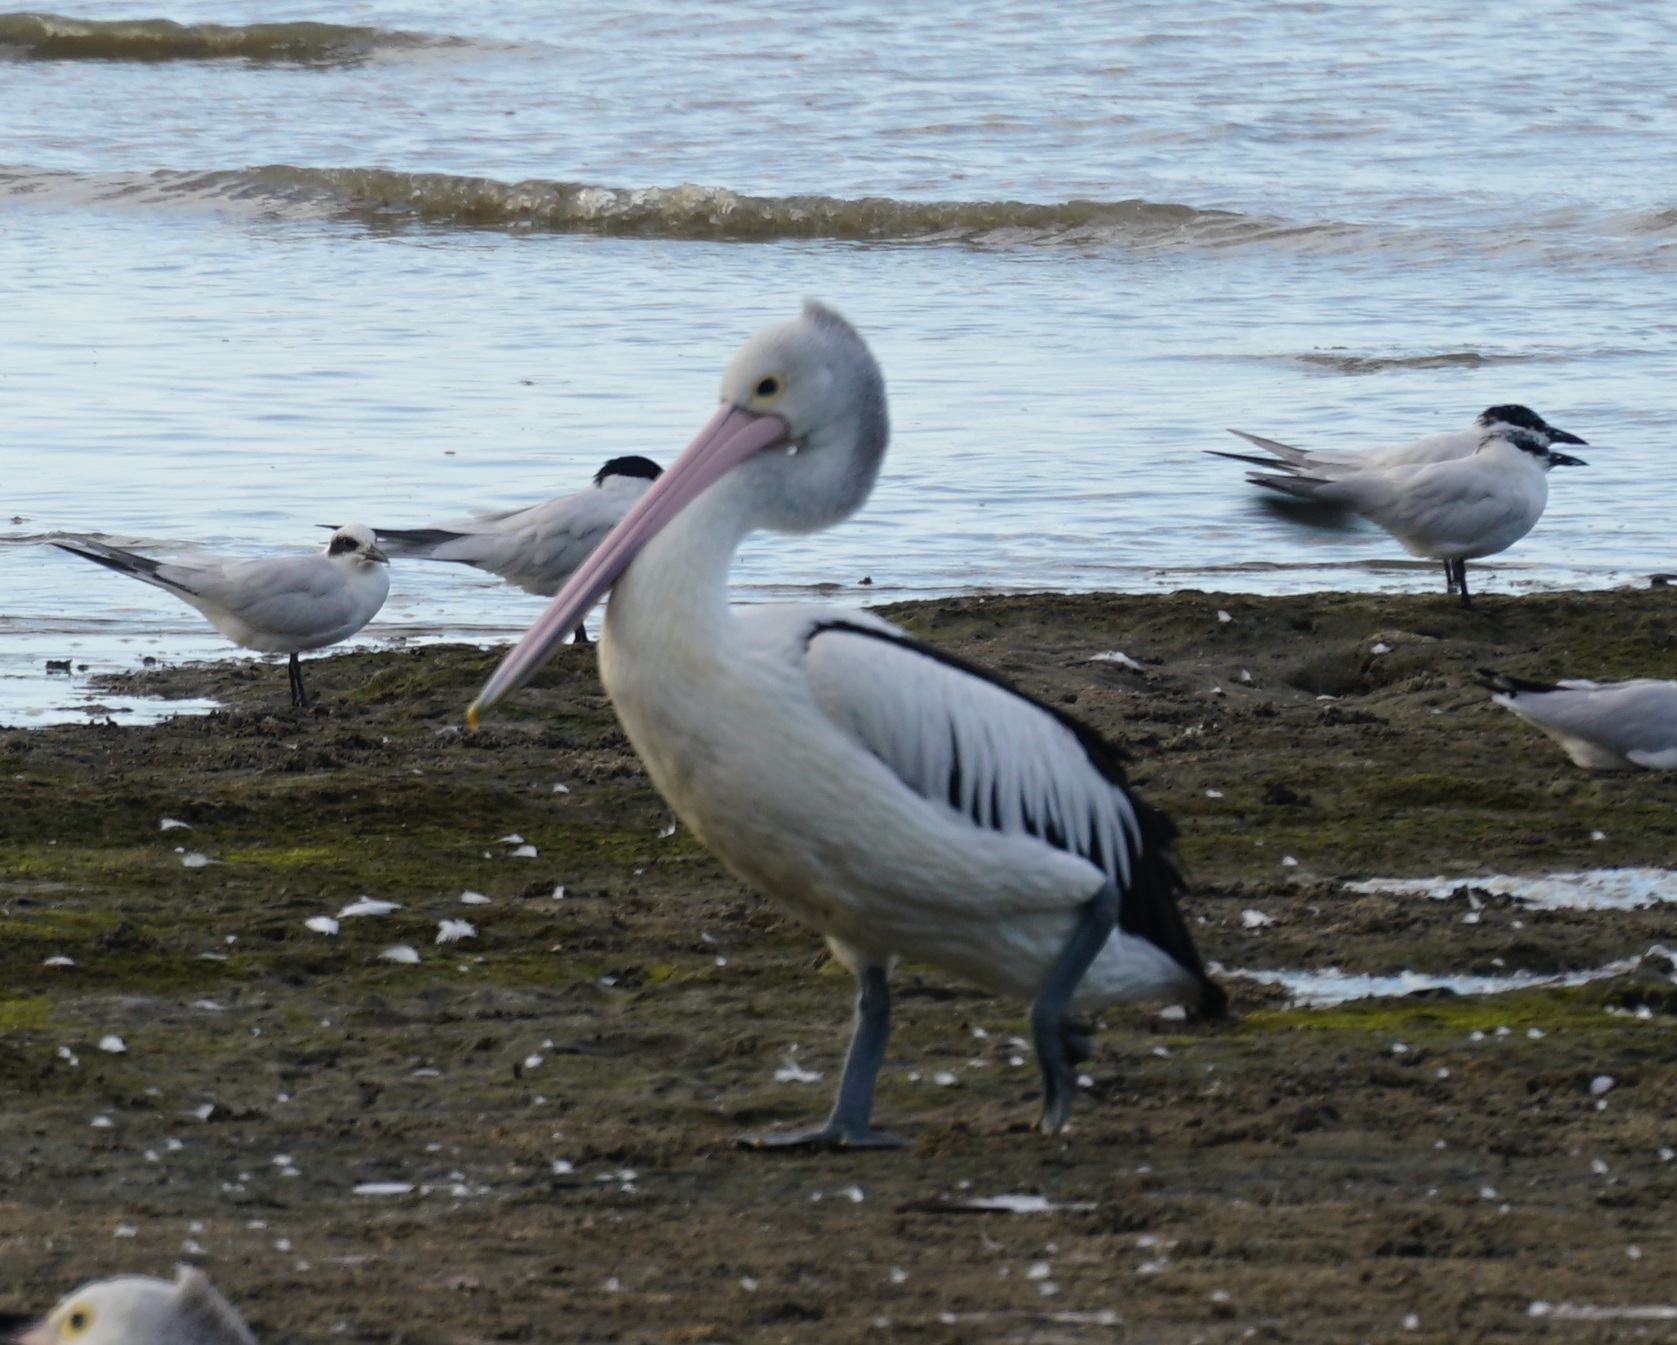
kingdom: Animalia
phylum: Chordata
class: Aves
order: Pelecaniformes
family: Pelecanidae
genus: Pelecanus
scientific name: Pelecanus conspicillatus
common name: Australian pelican
